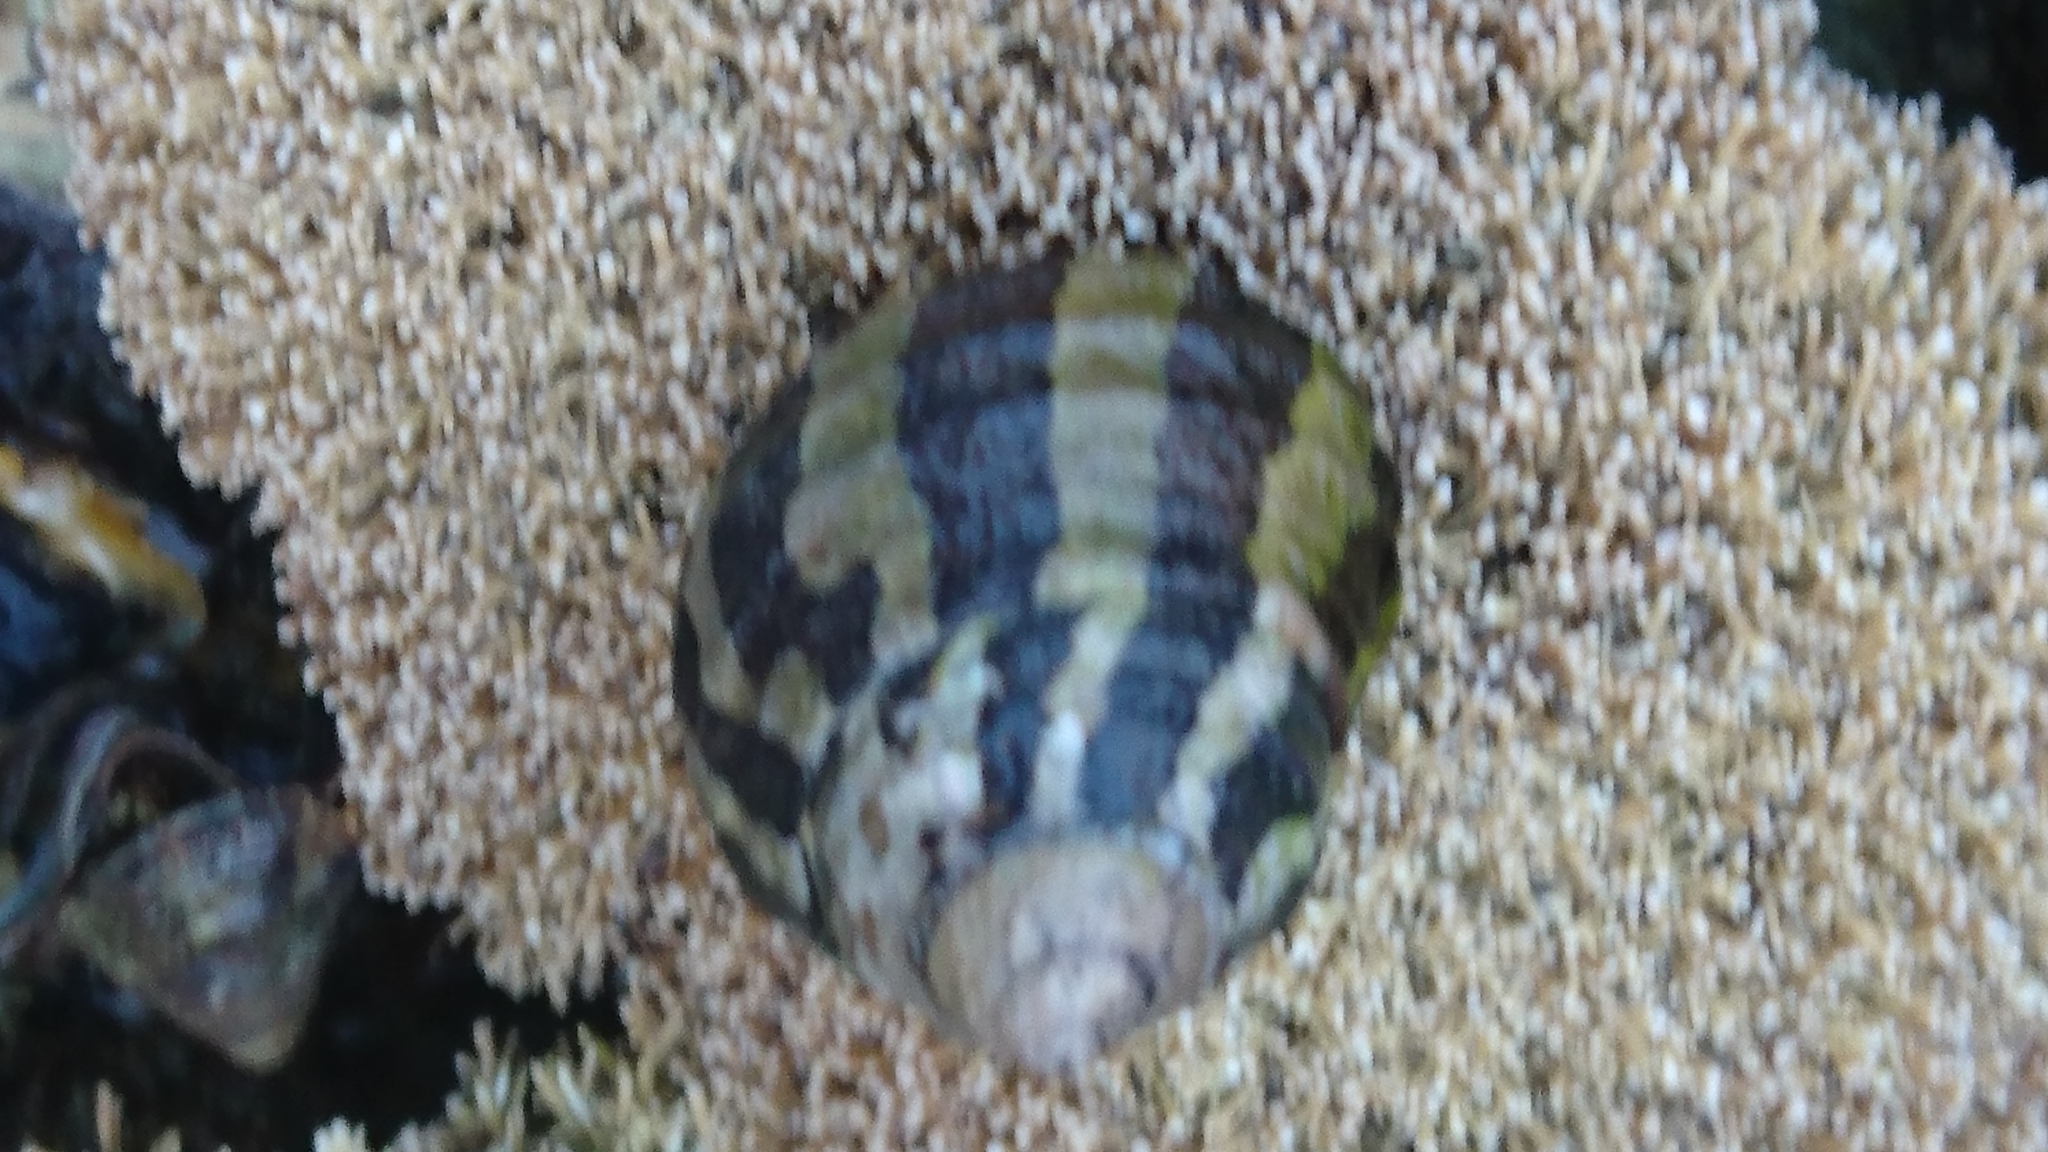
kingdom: Animalia
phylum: Mollusca
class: Gastropoda
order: Trochida
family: Trochidae
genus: Austrocochlea
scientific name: Austrocochlea porcata
